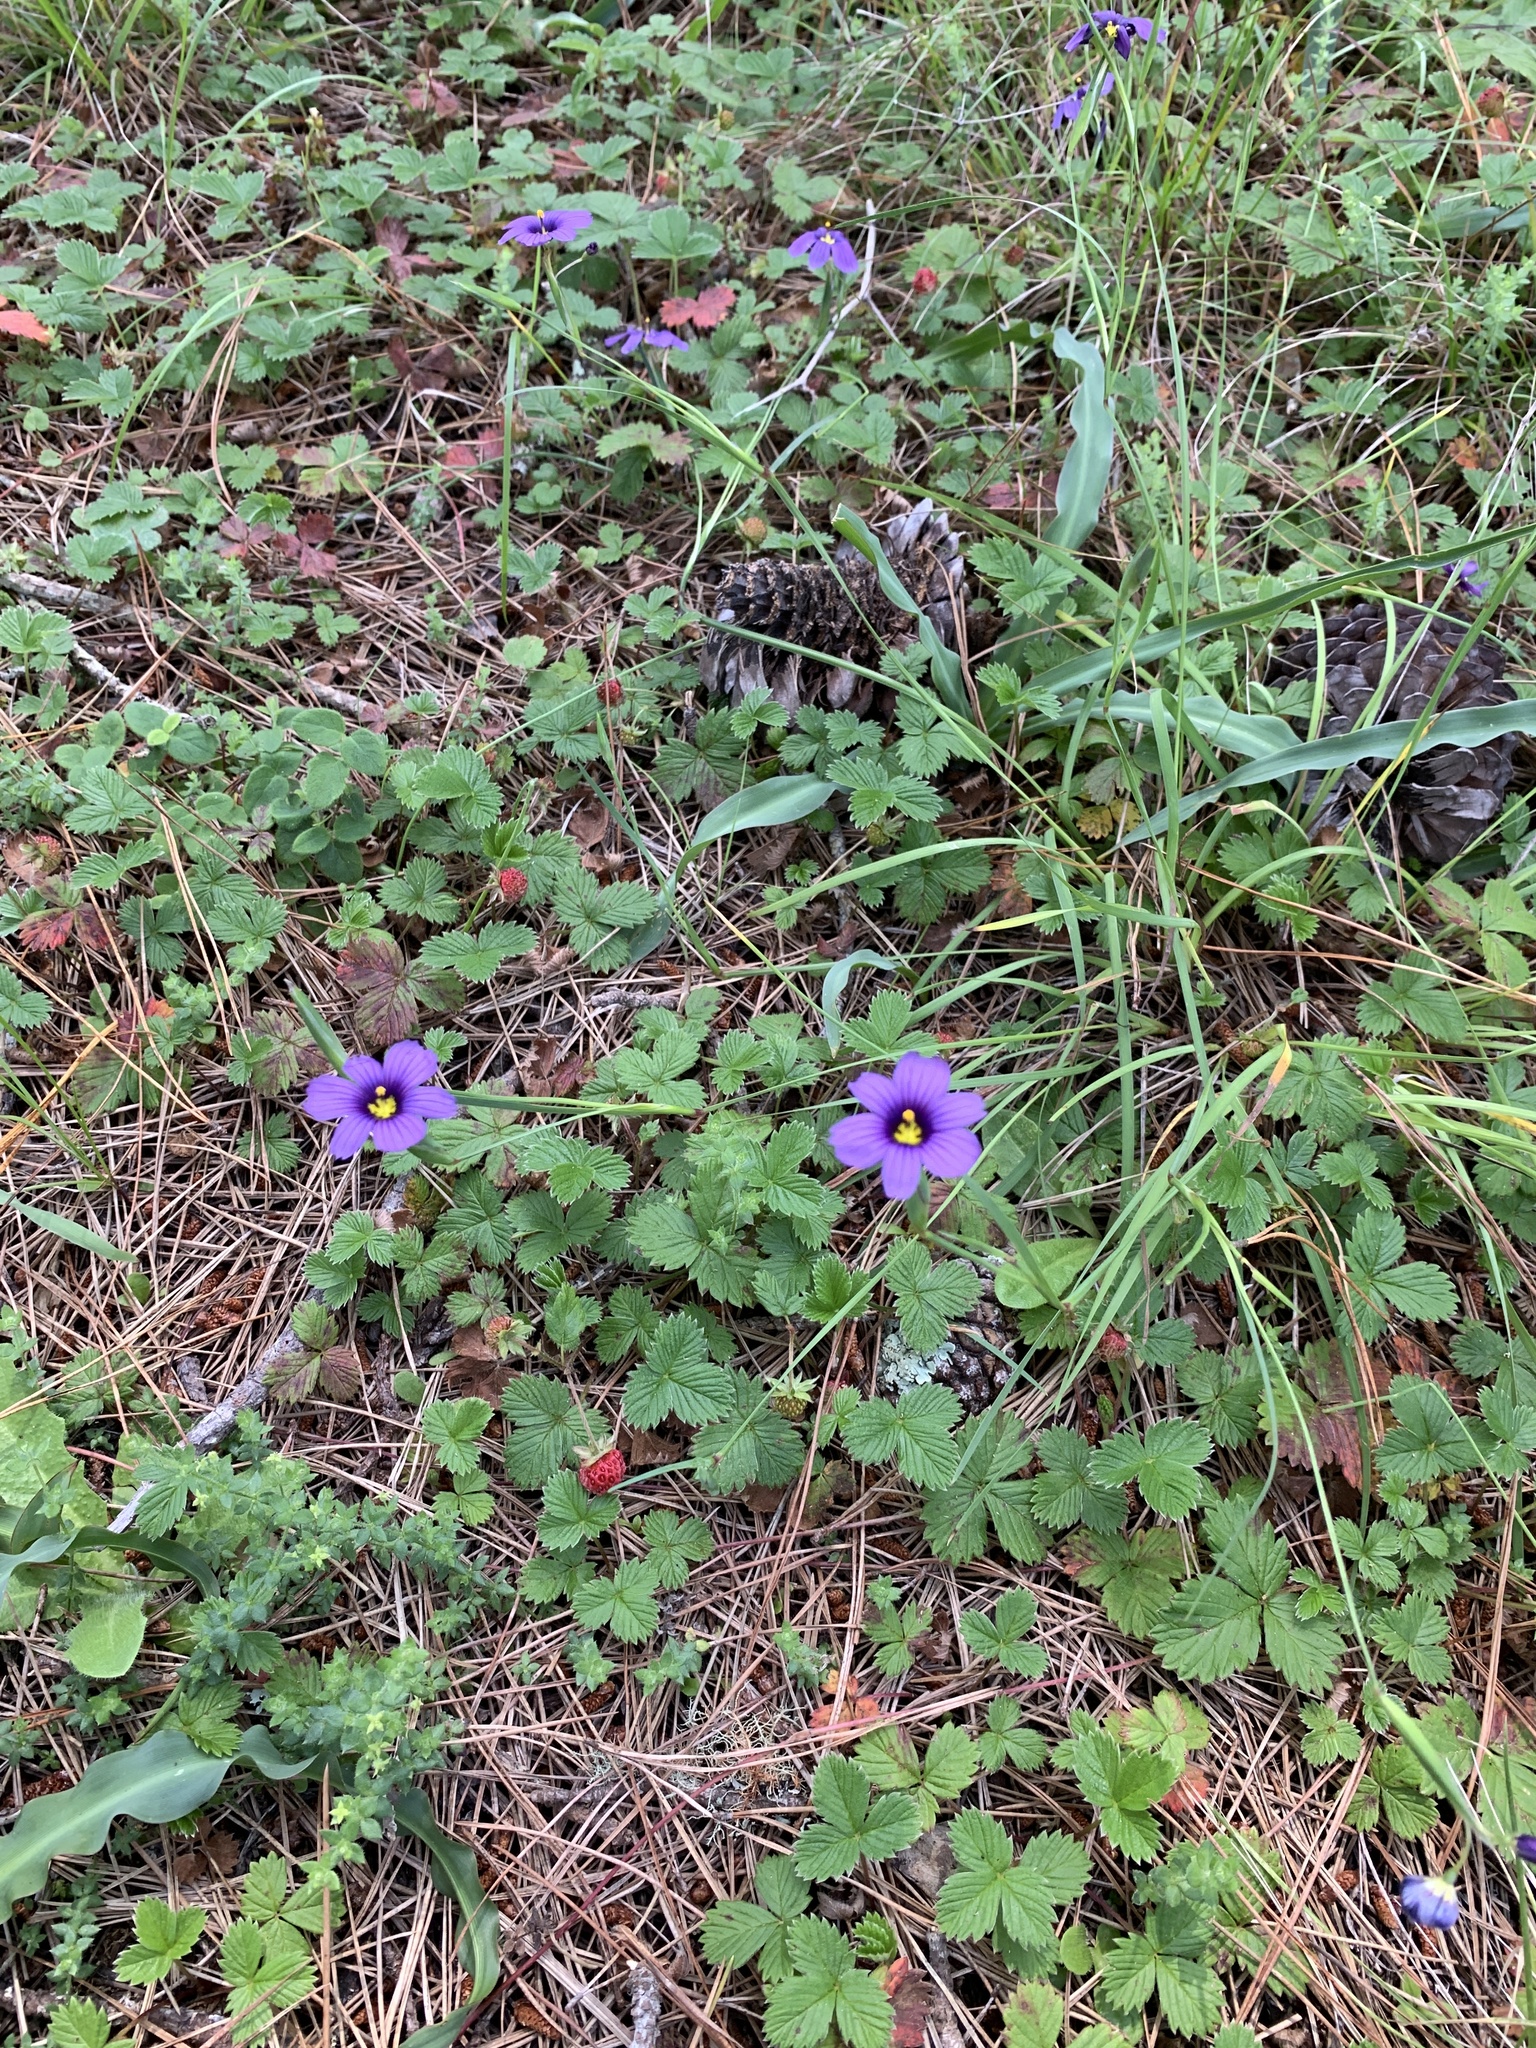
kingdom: Plantae
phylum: Tracheophyta
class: Liliopsida
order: Asparagales
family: Iridaceae
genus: Sisyrinchium
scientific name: Sisyrinchium bellum
